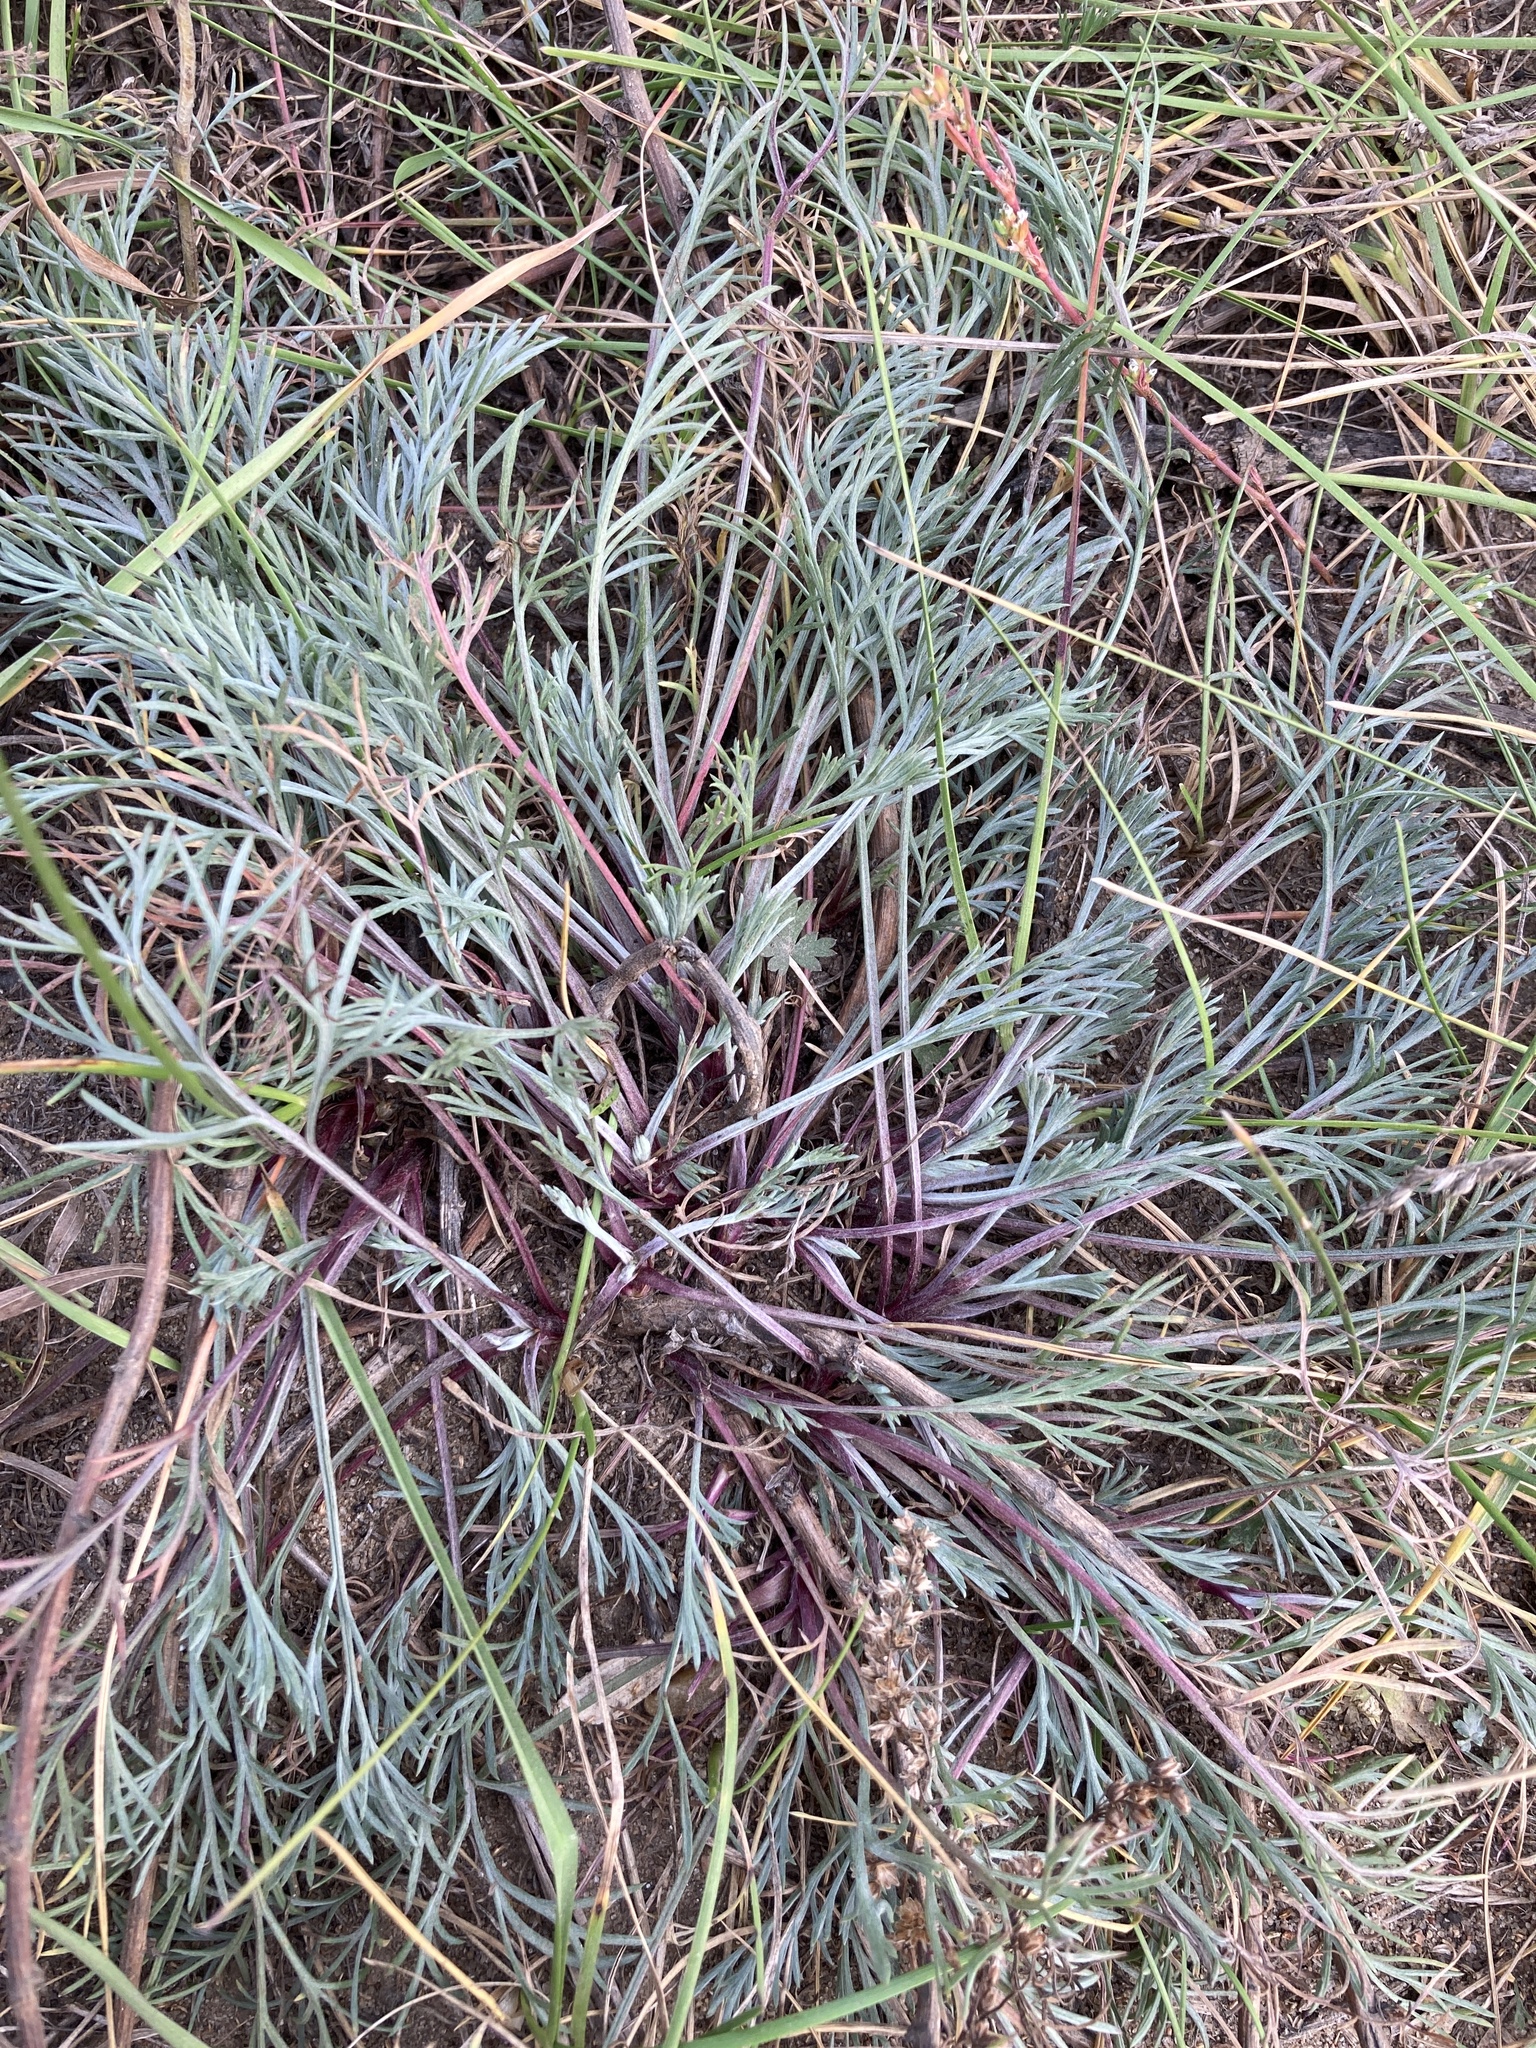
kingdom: Plantae
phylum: Tracheophyta
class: Magnoliopsida
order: Asterales
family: Asteraceae
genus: Artemisia
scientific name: Artemisia campestris
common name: Field wormwood
